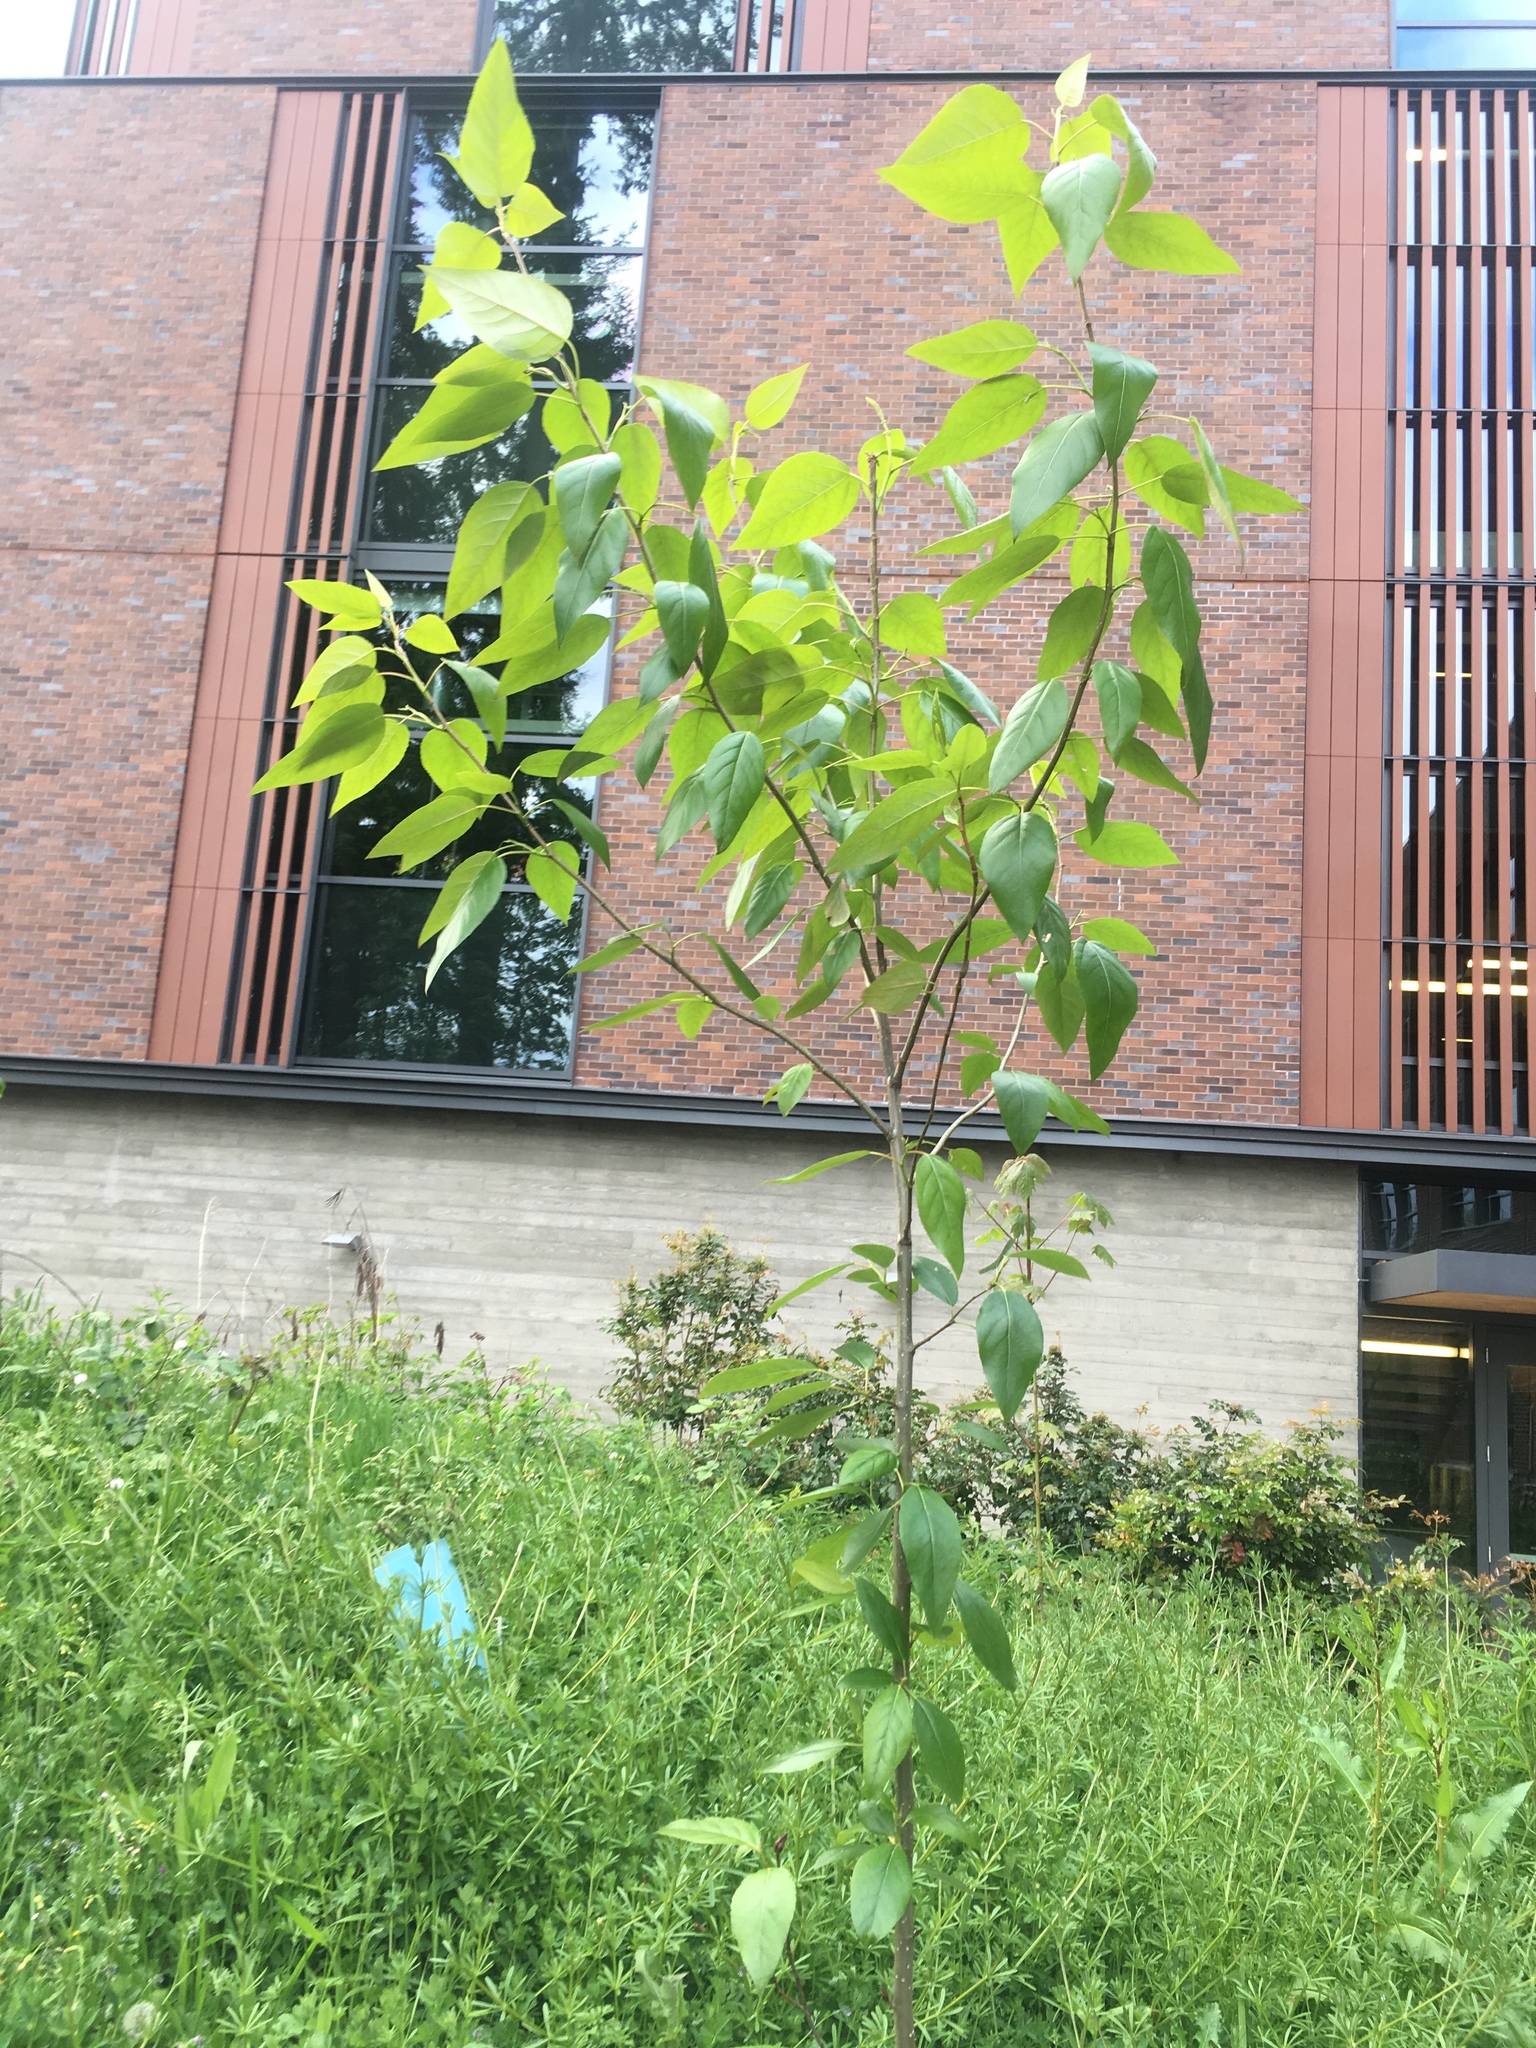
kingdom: Plantae
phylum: Tracheophyta
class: Magnoliopsida
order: Malpighiales
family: Salicaceae
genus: Populus
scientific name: Populus trichocarpa
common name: Black cottonwood
